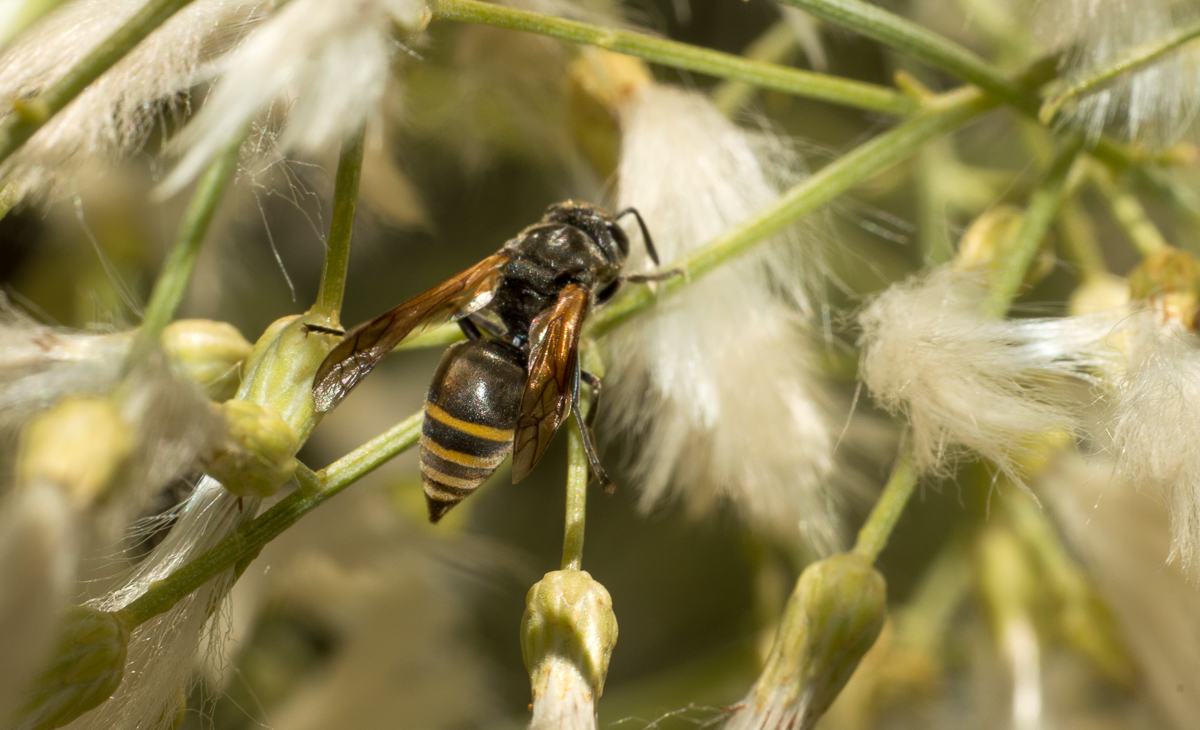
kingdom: Animalia
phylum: Arthropoda
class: Insecta
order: Hymenoptera
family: Vespidae
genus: Brachygastra
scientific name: Brachygastra lecheguana
